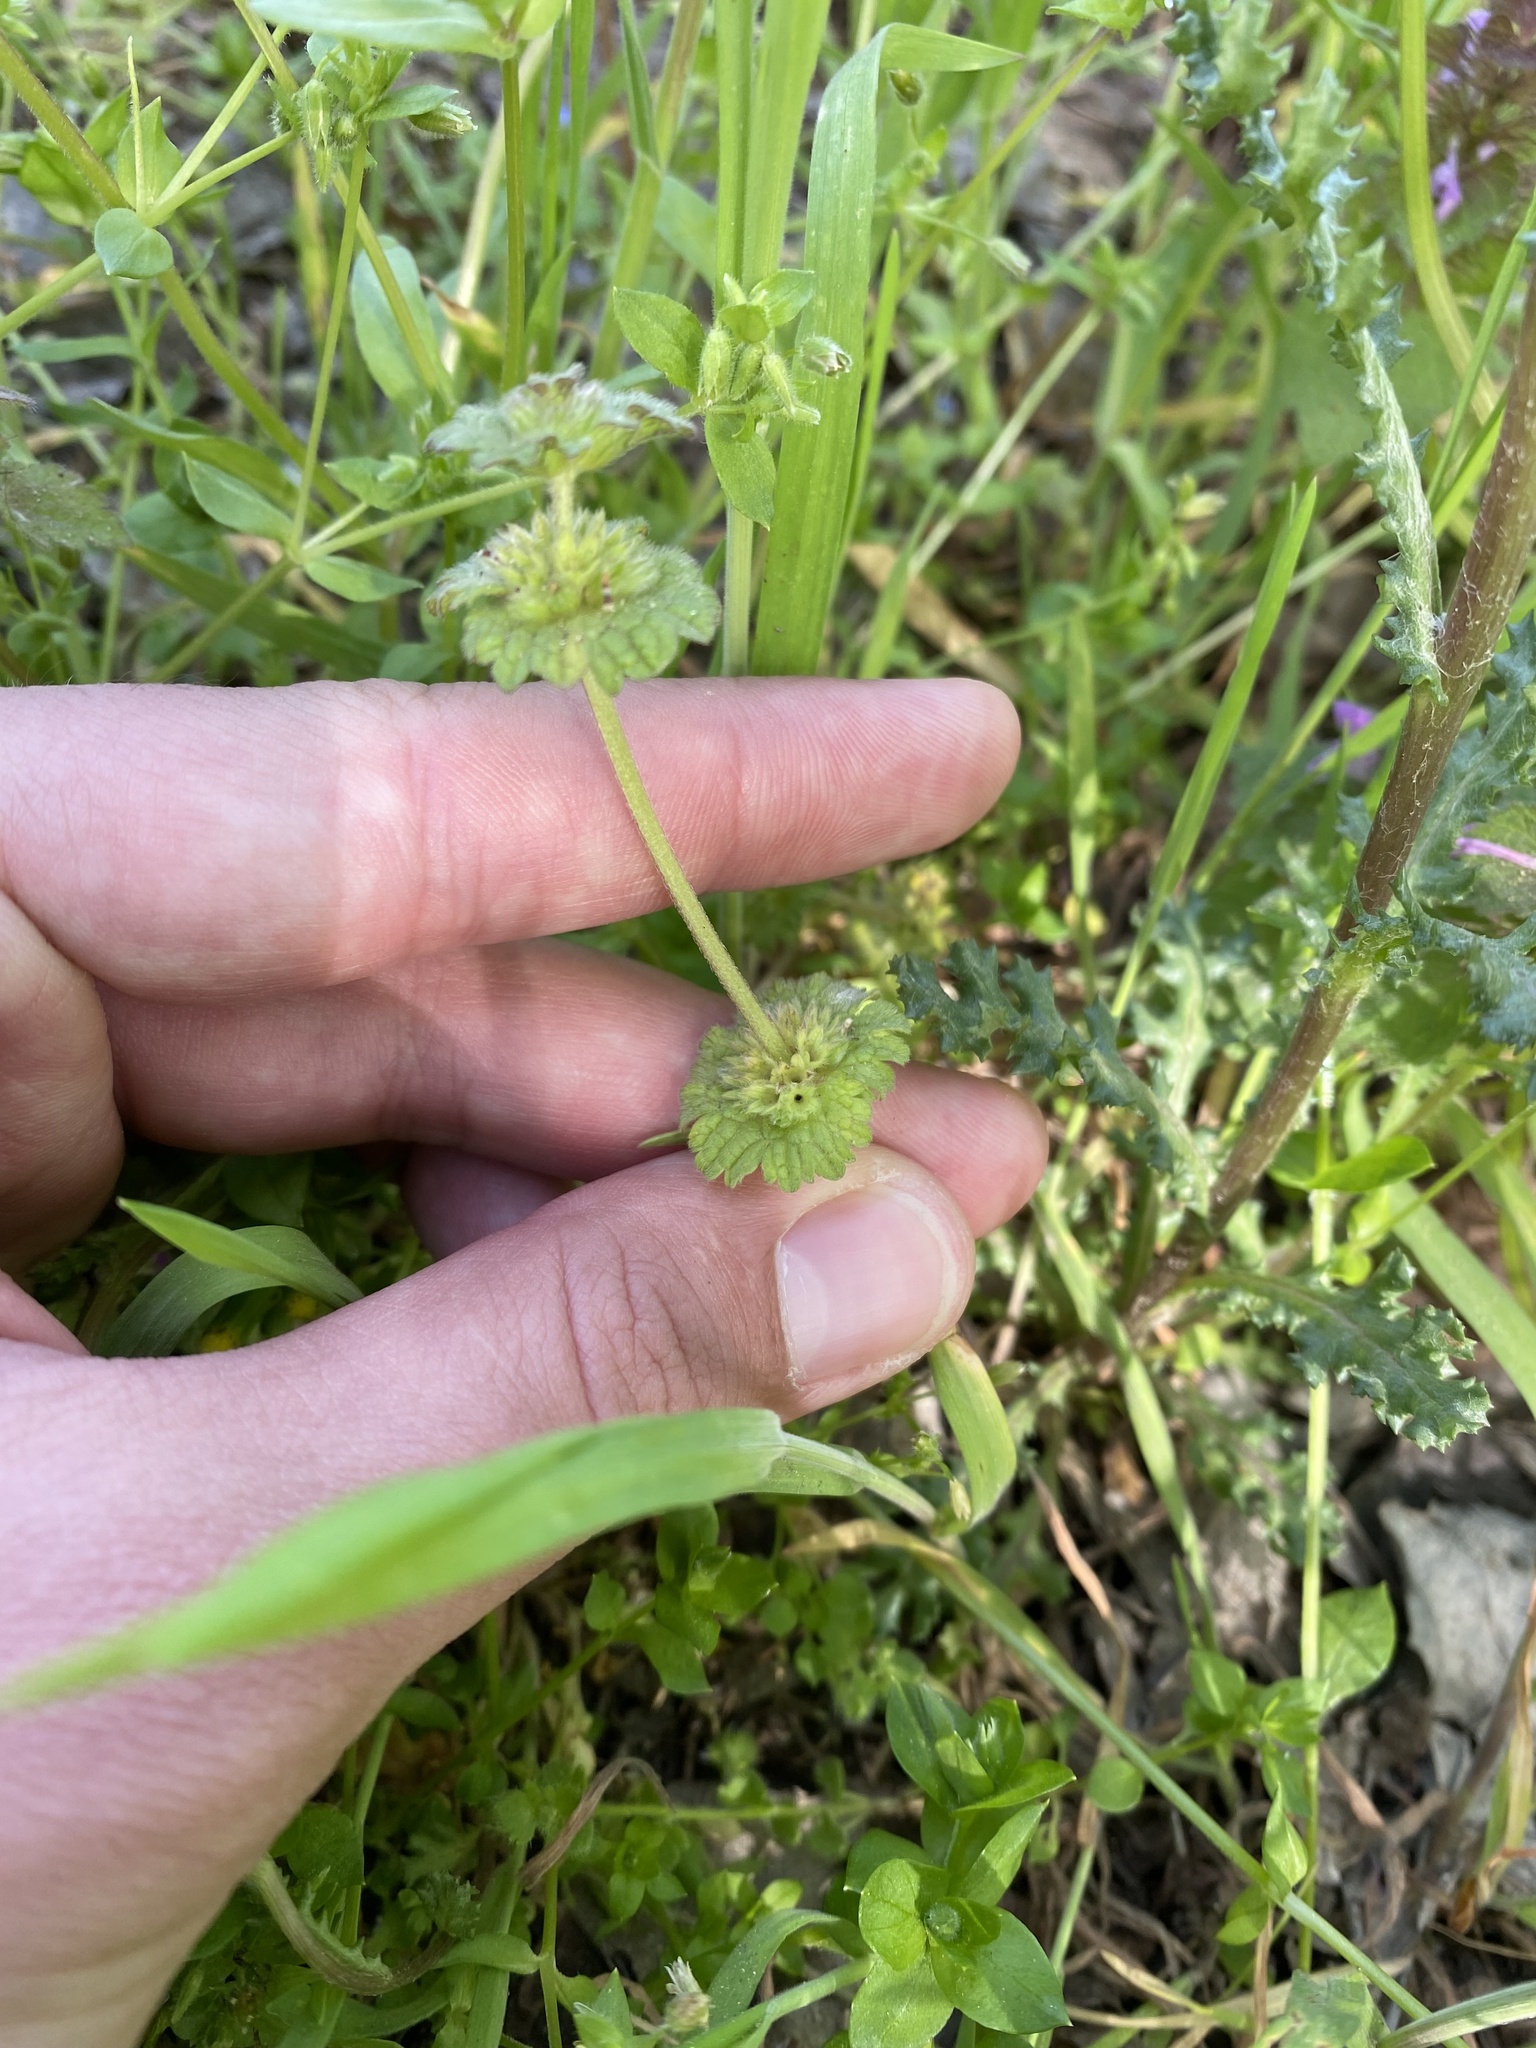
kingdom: Plantae
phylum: Tracheophyta
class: Magnoliopsida
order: Lamiales
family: Lamiaceae
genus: Lamium
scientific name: Lamium amplexicaule
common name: Henbit dead-nettle
